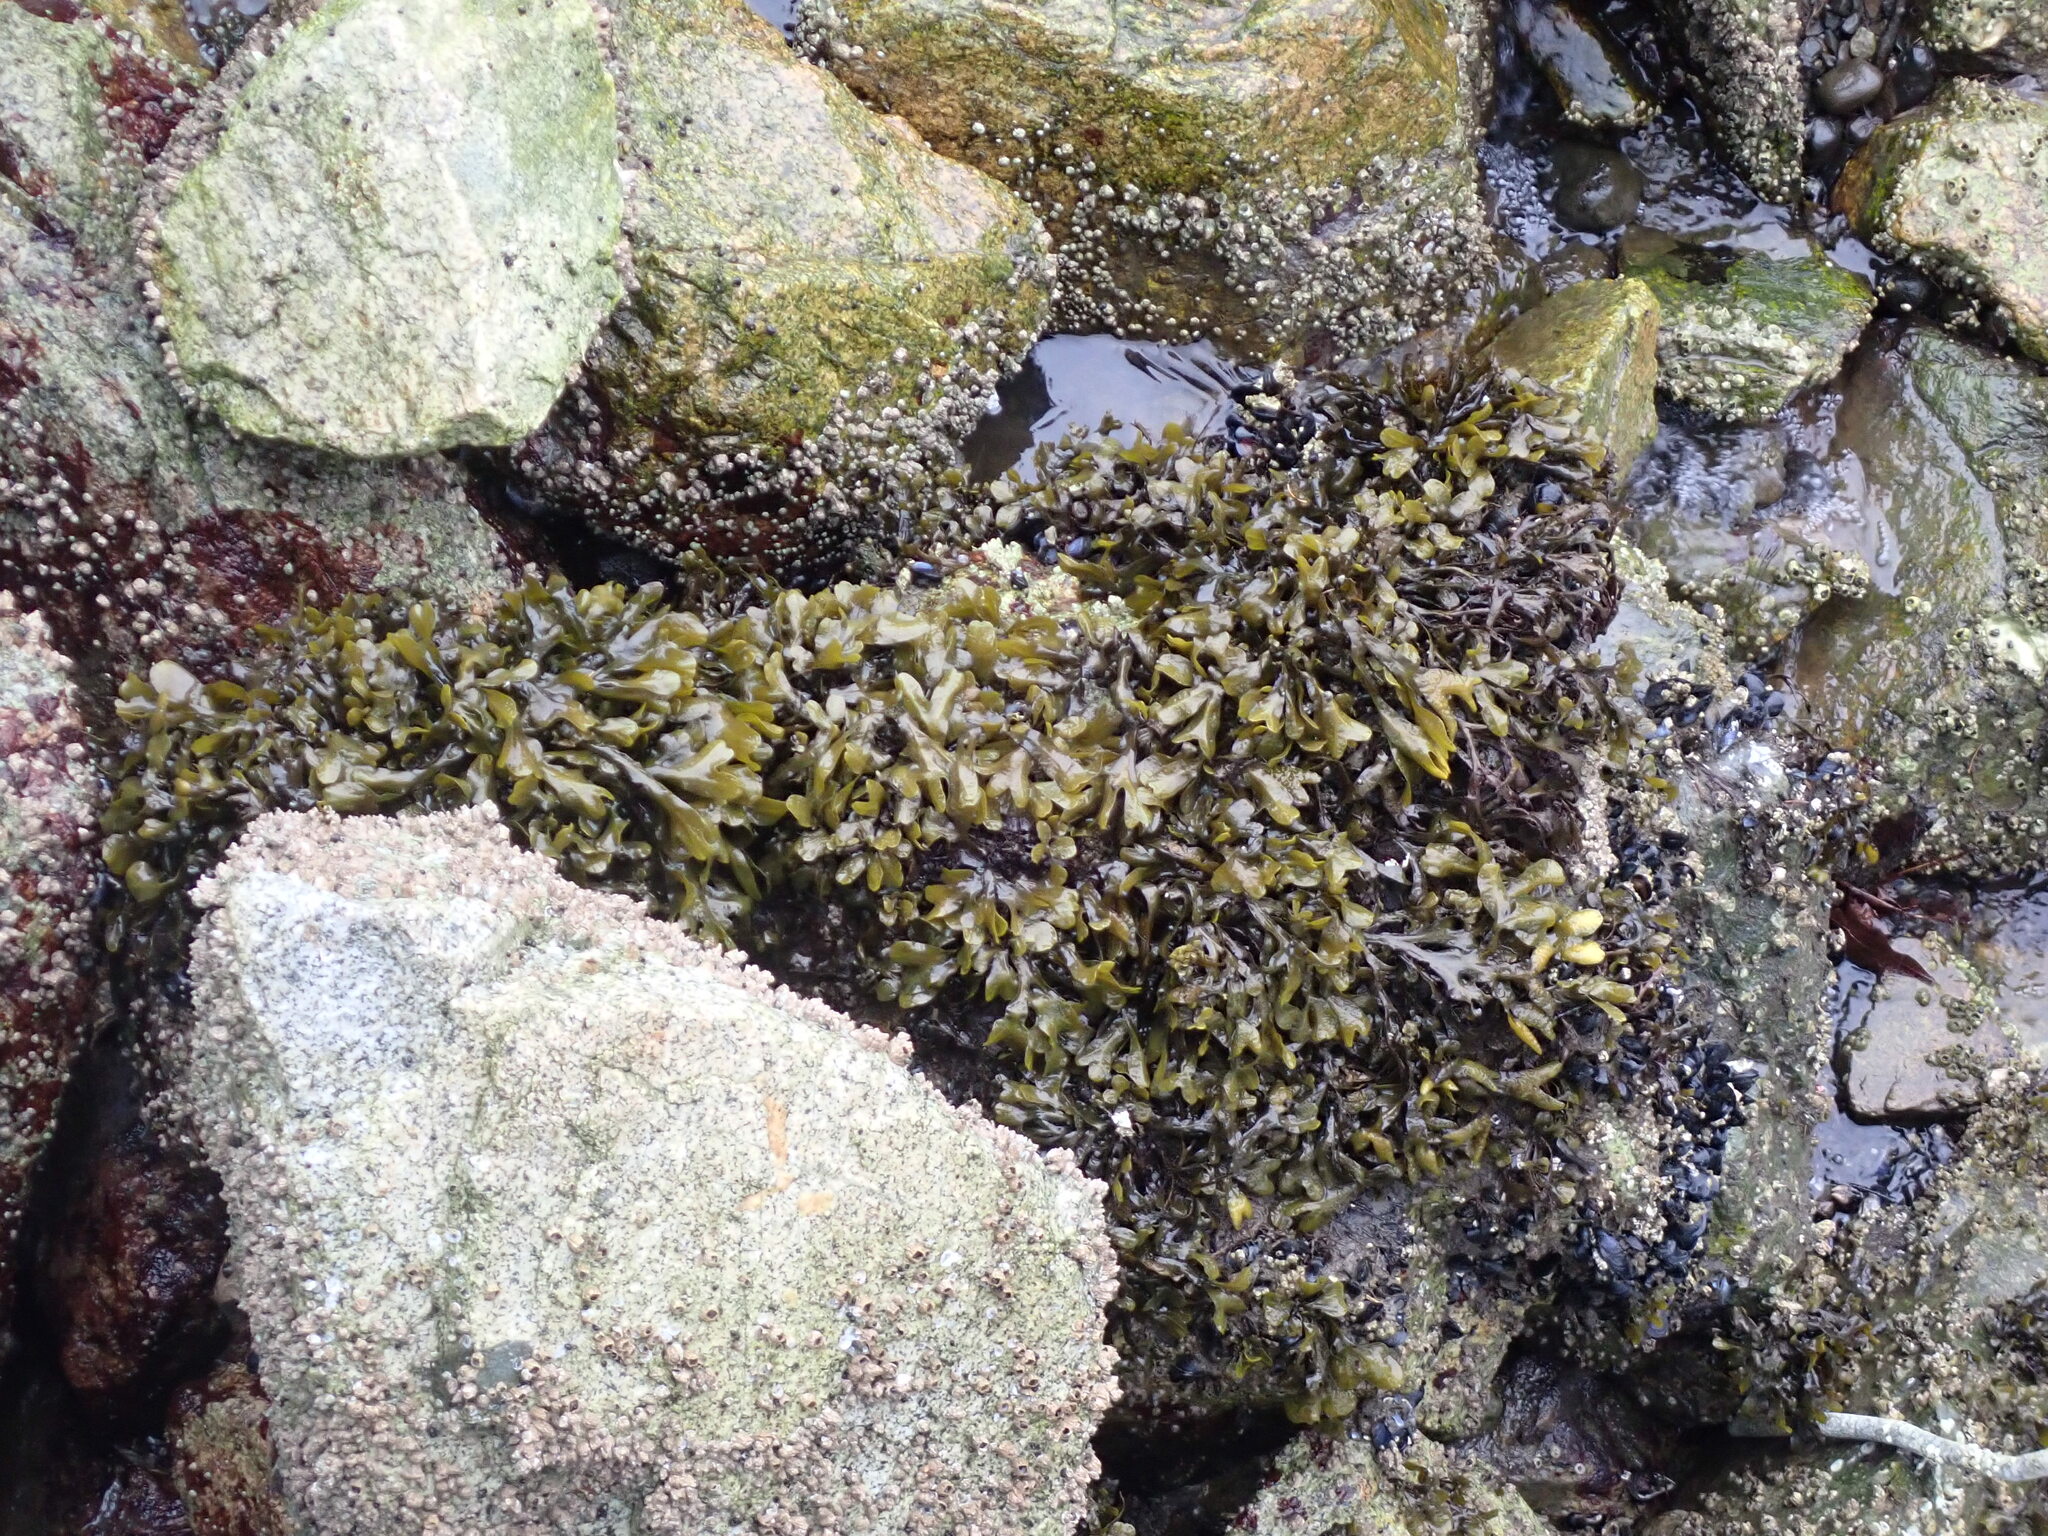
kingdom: Chromista
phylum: Ochrophyta
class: Phaeophyceae
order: Fucales
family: Fucaceae
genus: Fucus
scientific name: Fucus distichus
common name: Rockweed
